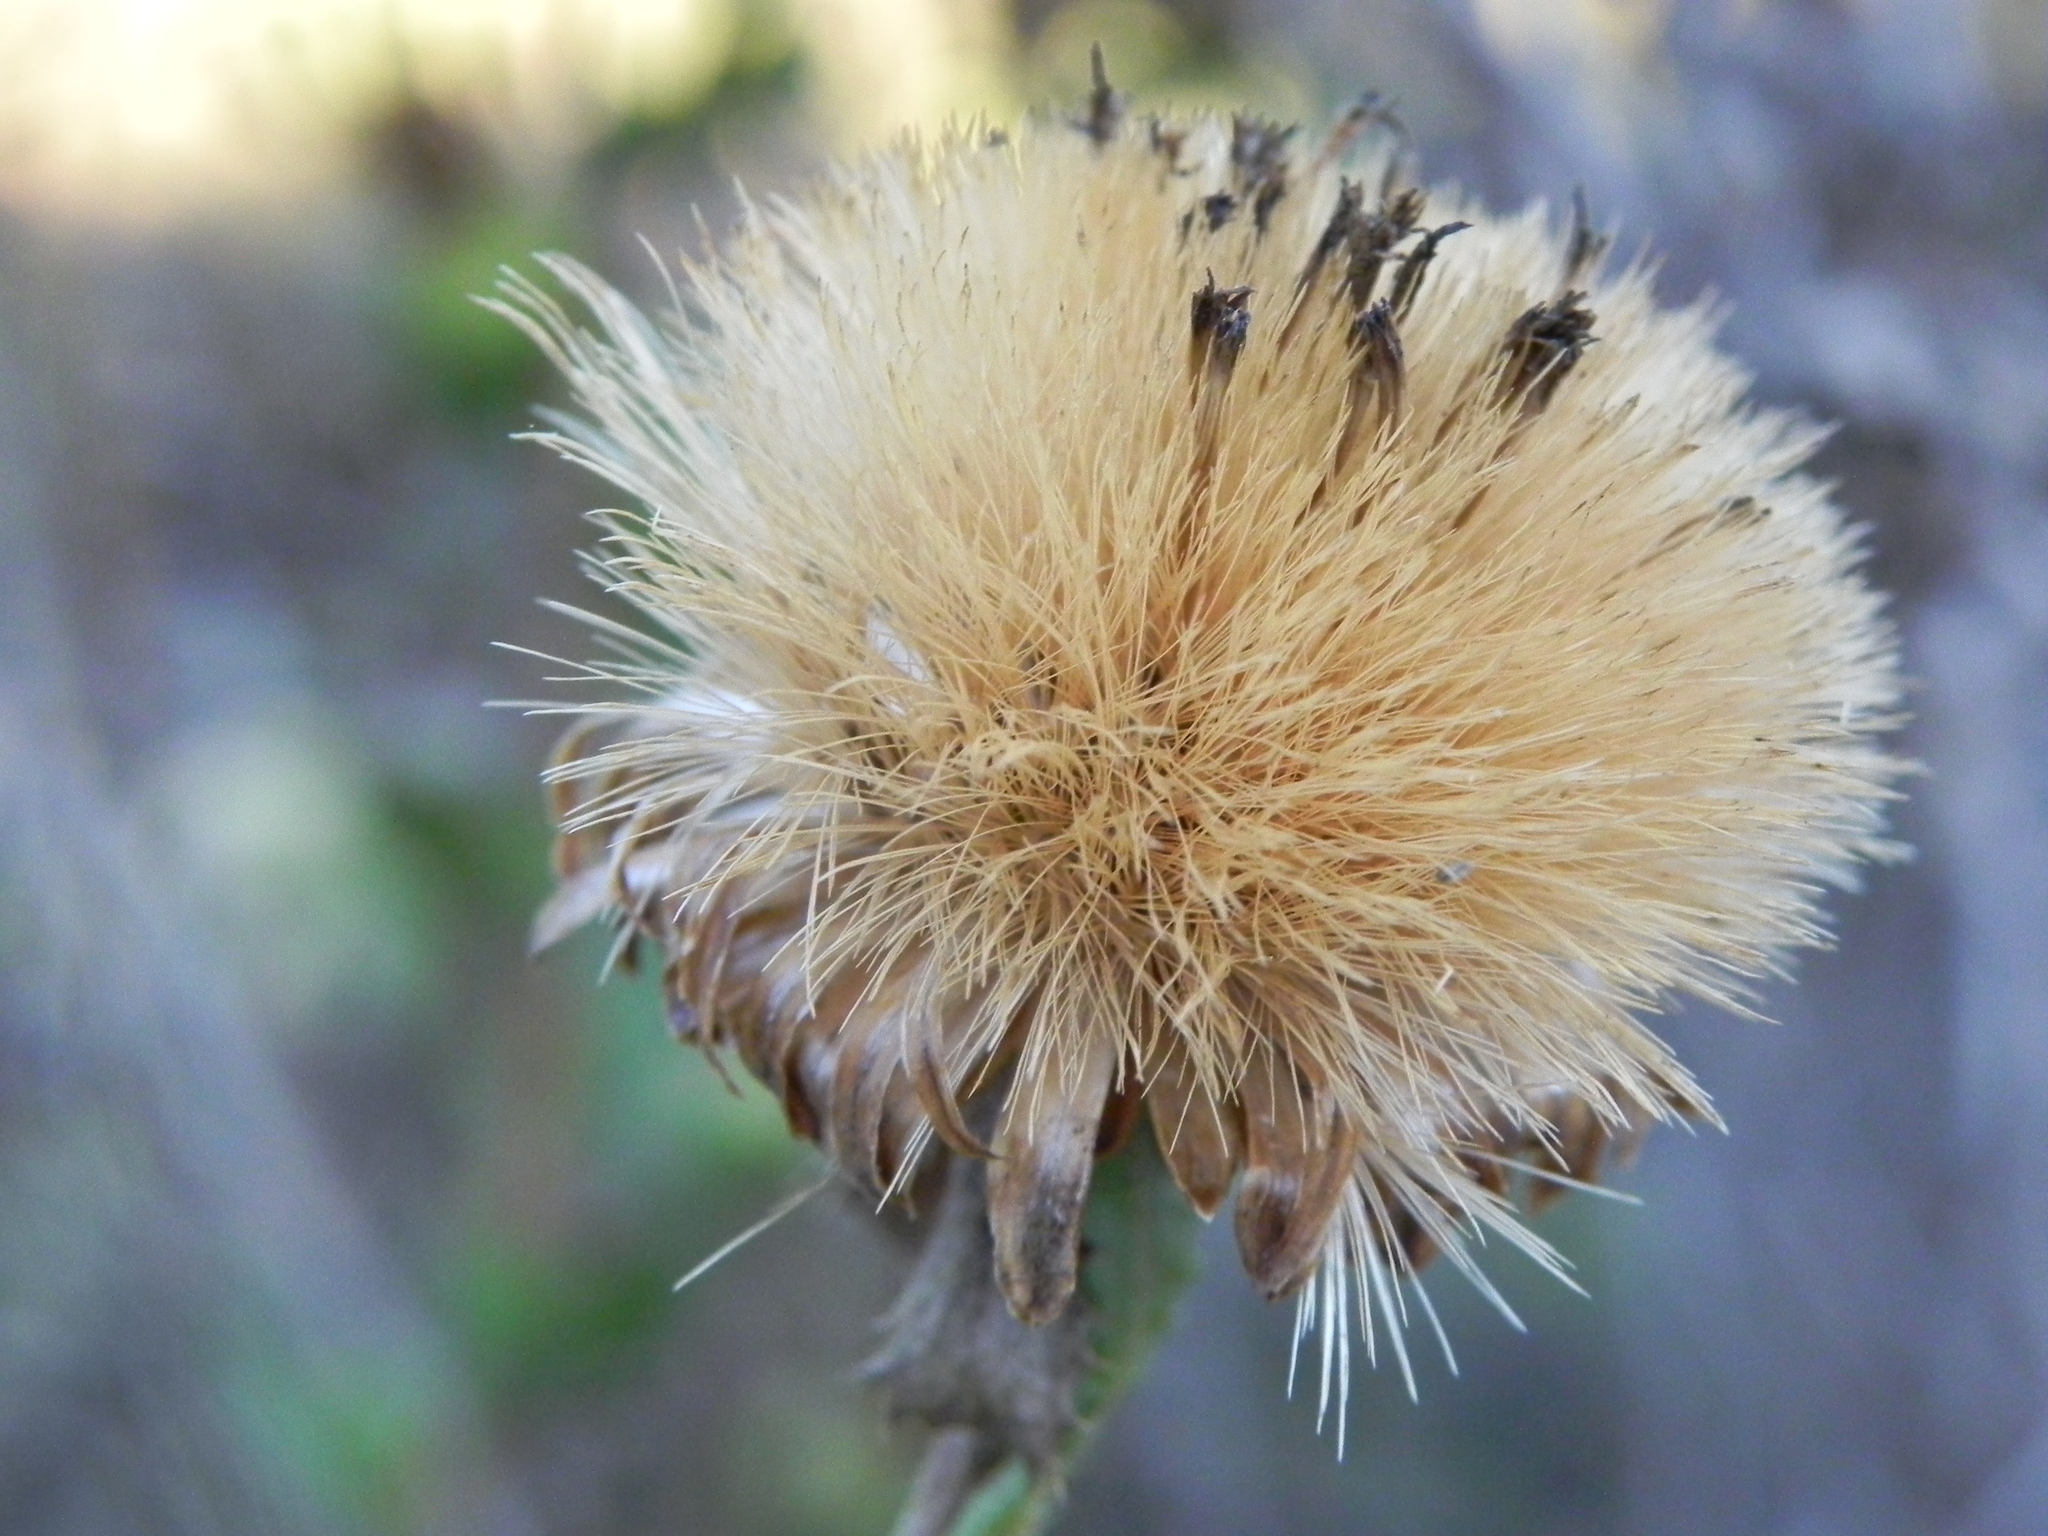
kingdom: Plantae
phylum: Tracheophyta
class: Magnoliopsida
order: Asterales
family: Asteraceae
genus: Hazardia
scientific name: Hazardia berberidis
